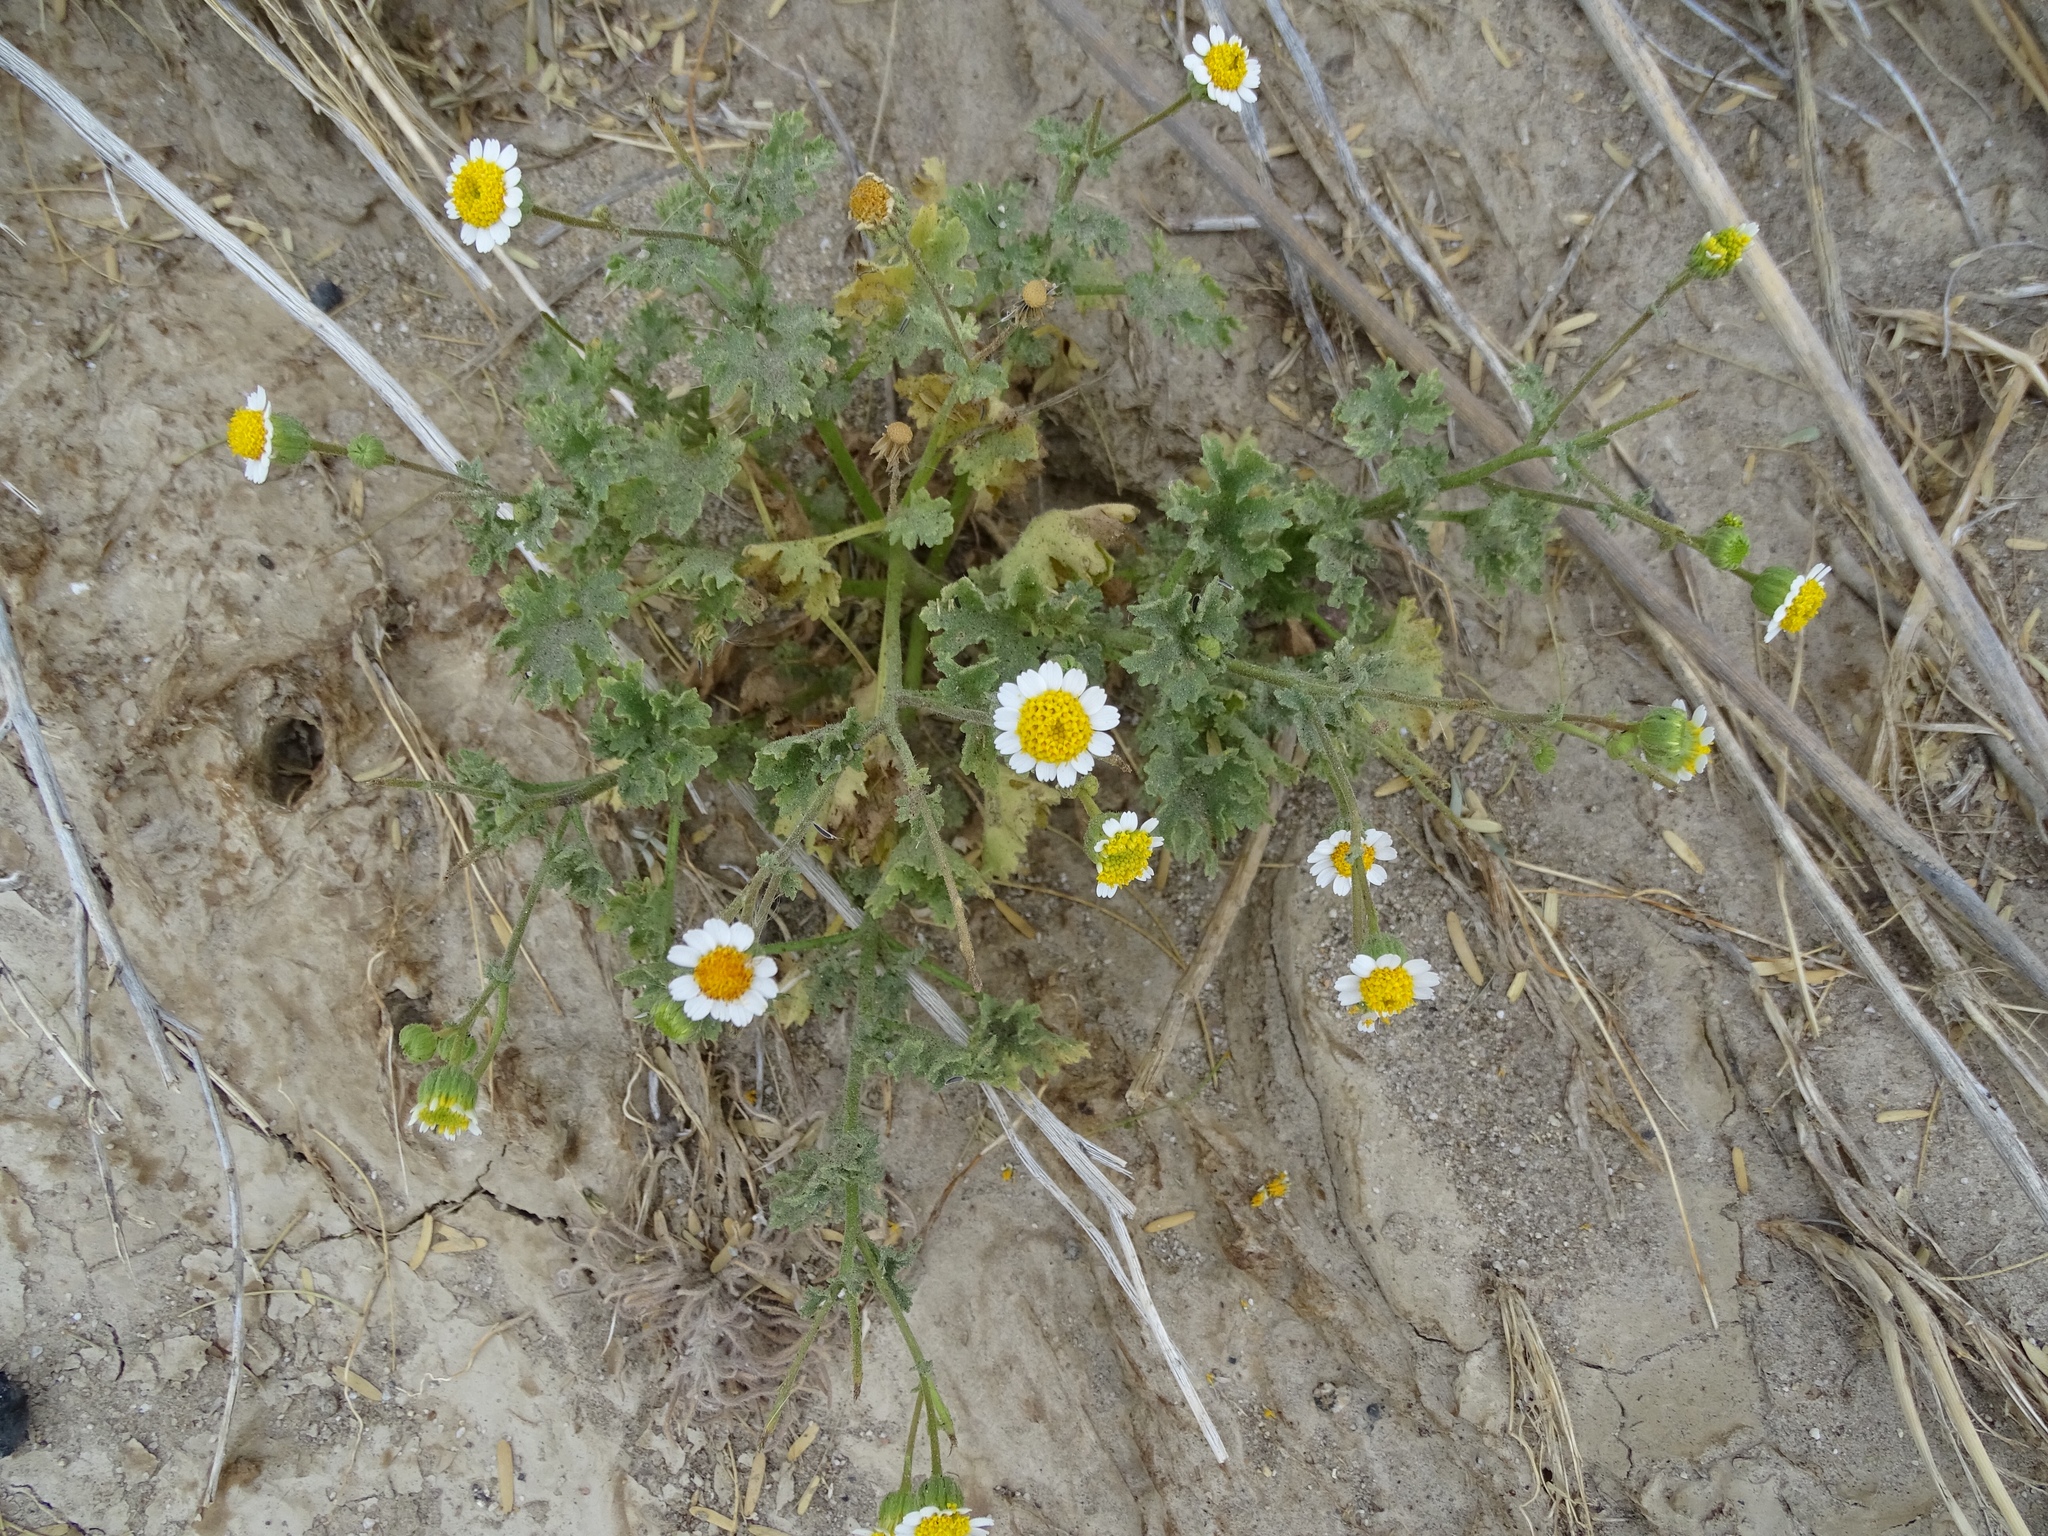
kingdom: Plantae
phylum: Tracheophyta
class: Magnoliopsida
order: Asterales
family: Asteraceae
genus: Laphamia
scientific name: Laphamia emoryi
